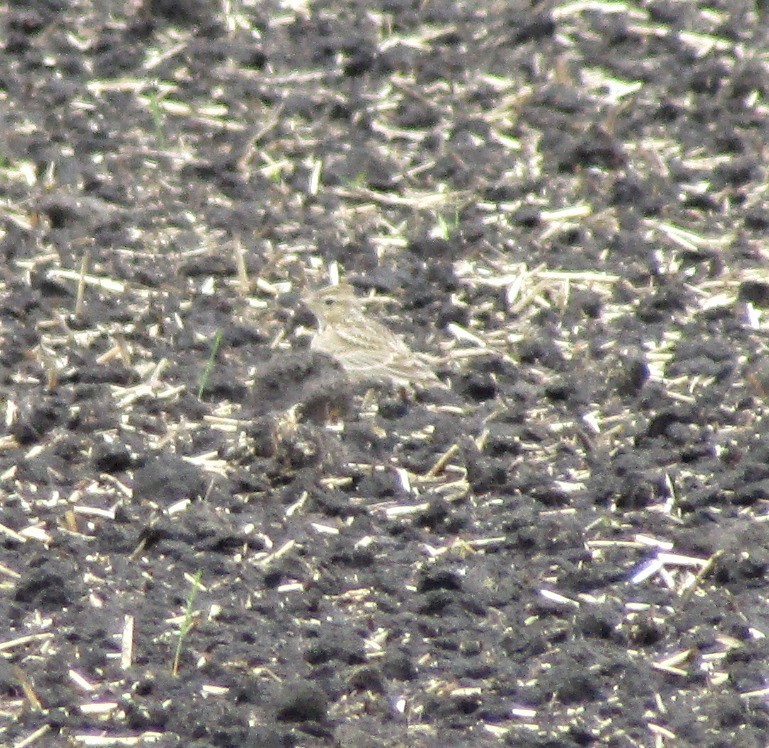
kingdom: Animalia
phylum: Chordata
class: Aves
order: Passeriformes
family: Alaudidae
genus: Alauda
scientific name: Alauda arvensis
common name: Eurasian skylark
